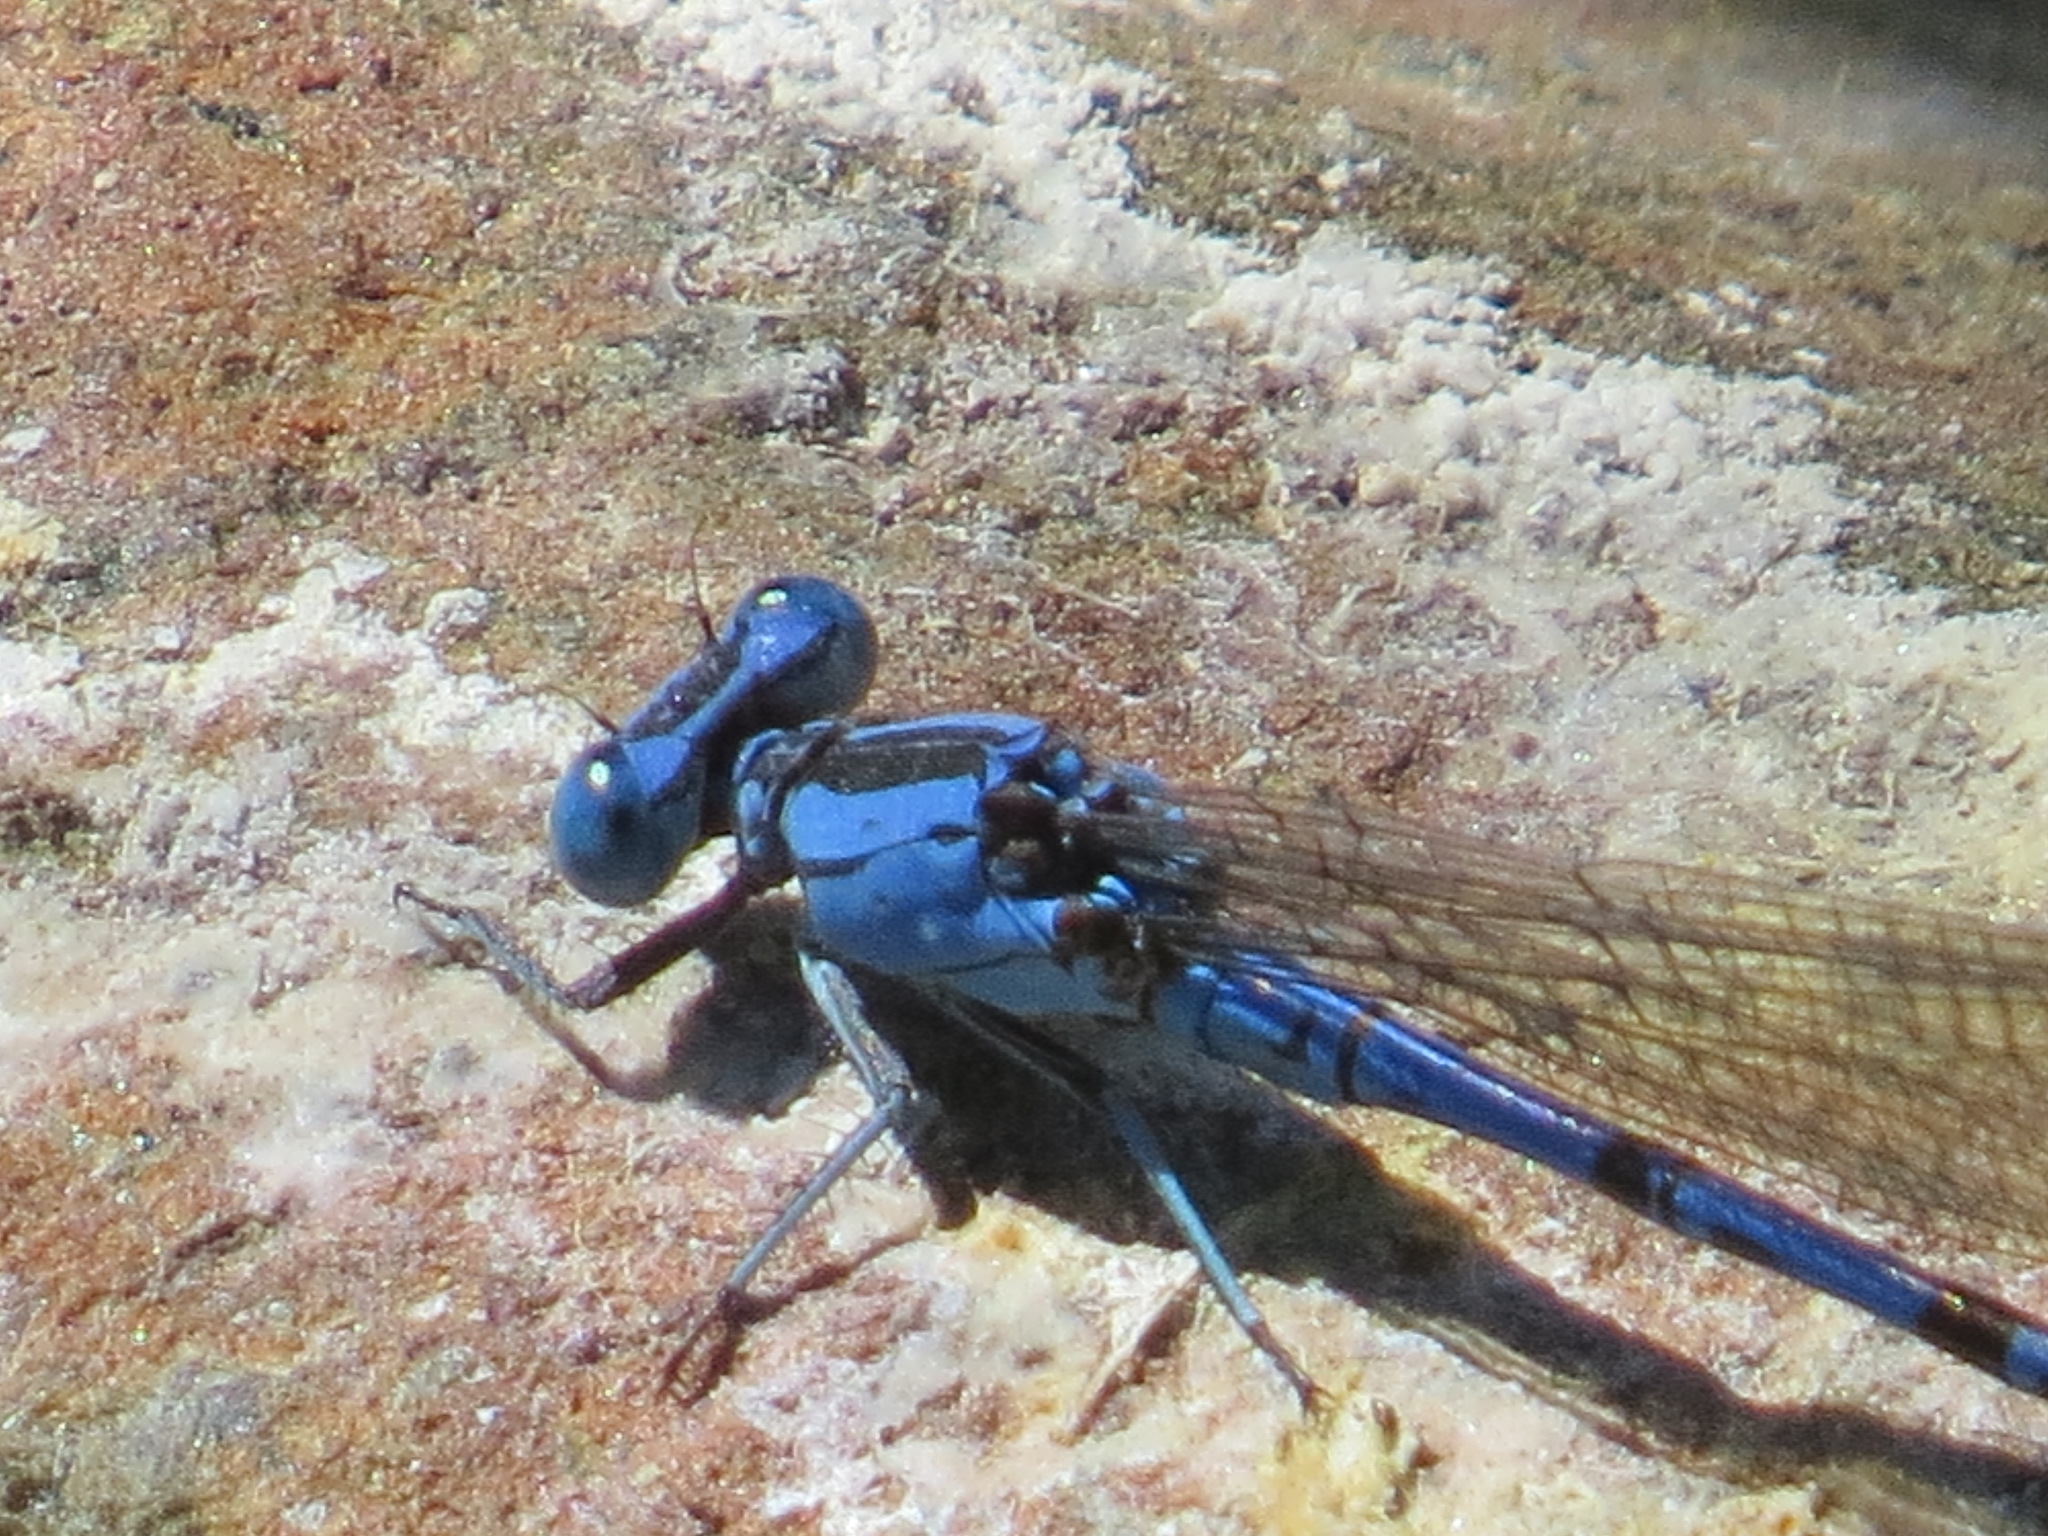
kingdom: Animalia
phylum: Arthropoda
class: Insecta
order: Odonata
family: Coenagrionidae
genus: Argia
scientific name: Argia vivida
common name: Vivid dancer
